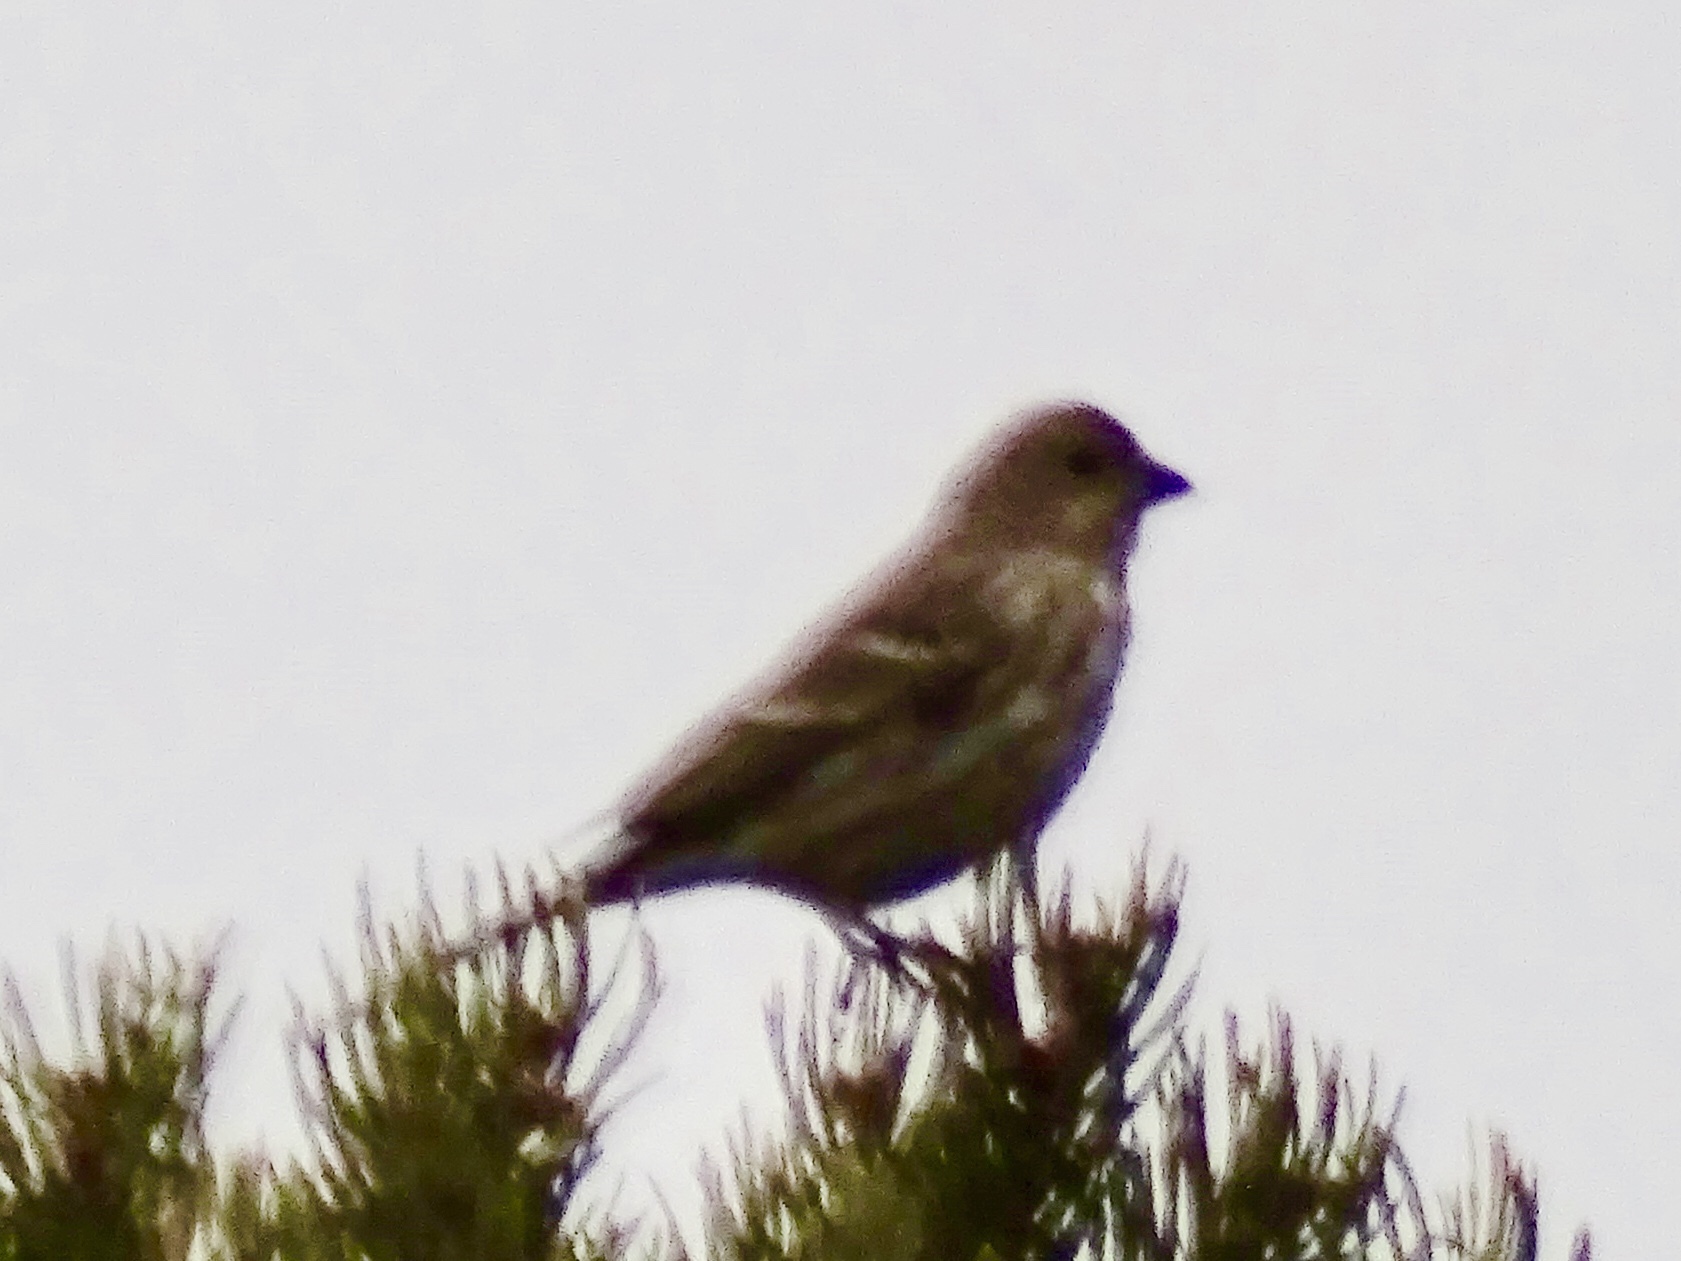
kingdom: Animalia
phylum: Chordata
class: Aves
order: Passeriformes
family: Fringillidae
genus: Haemorhous
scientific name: Haemorhous mexicanus
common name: House finch
